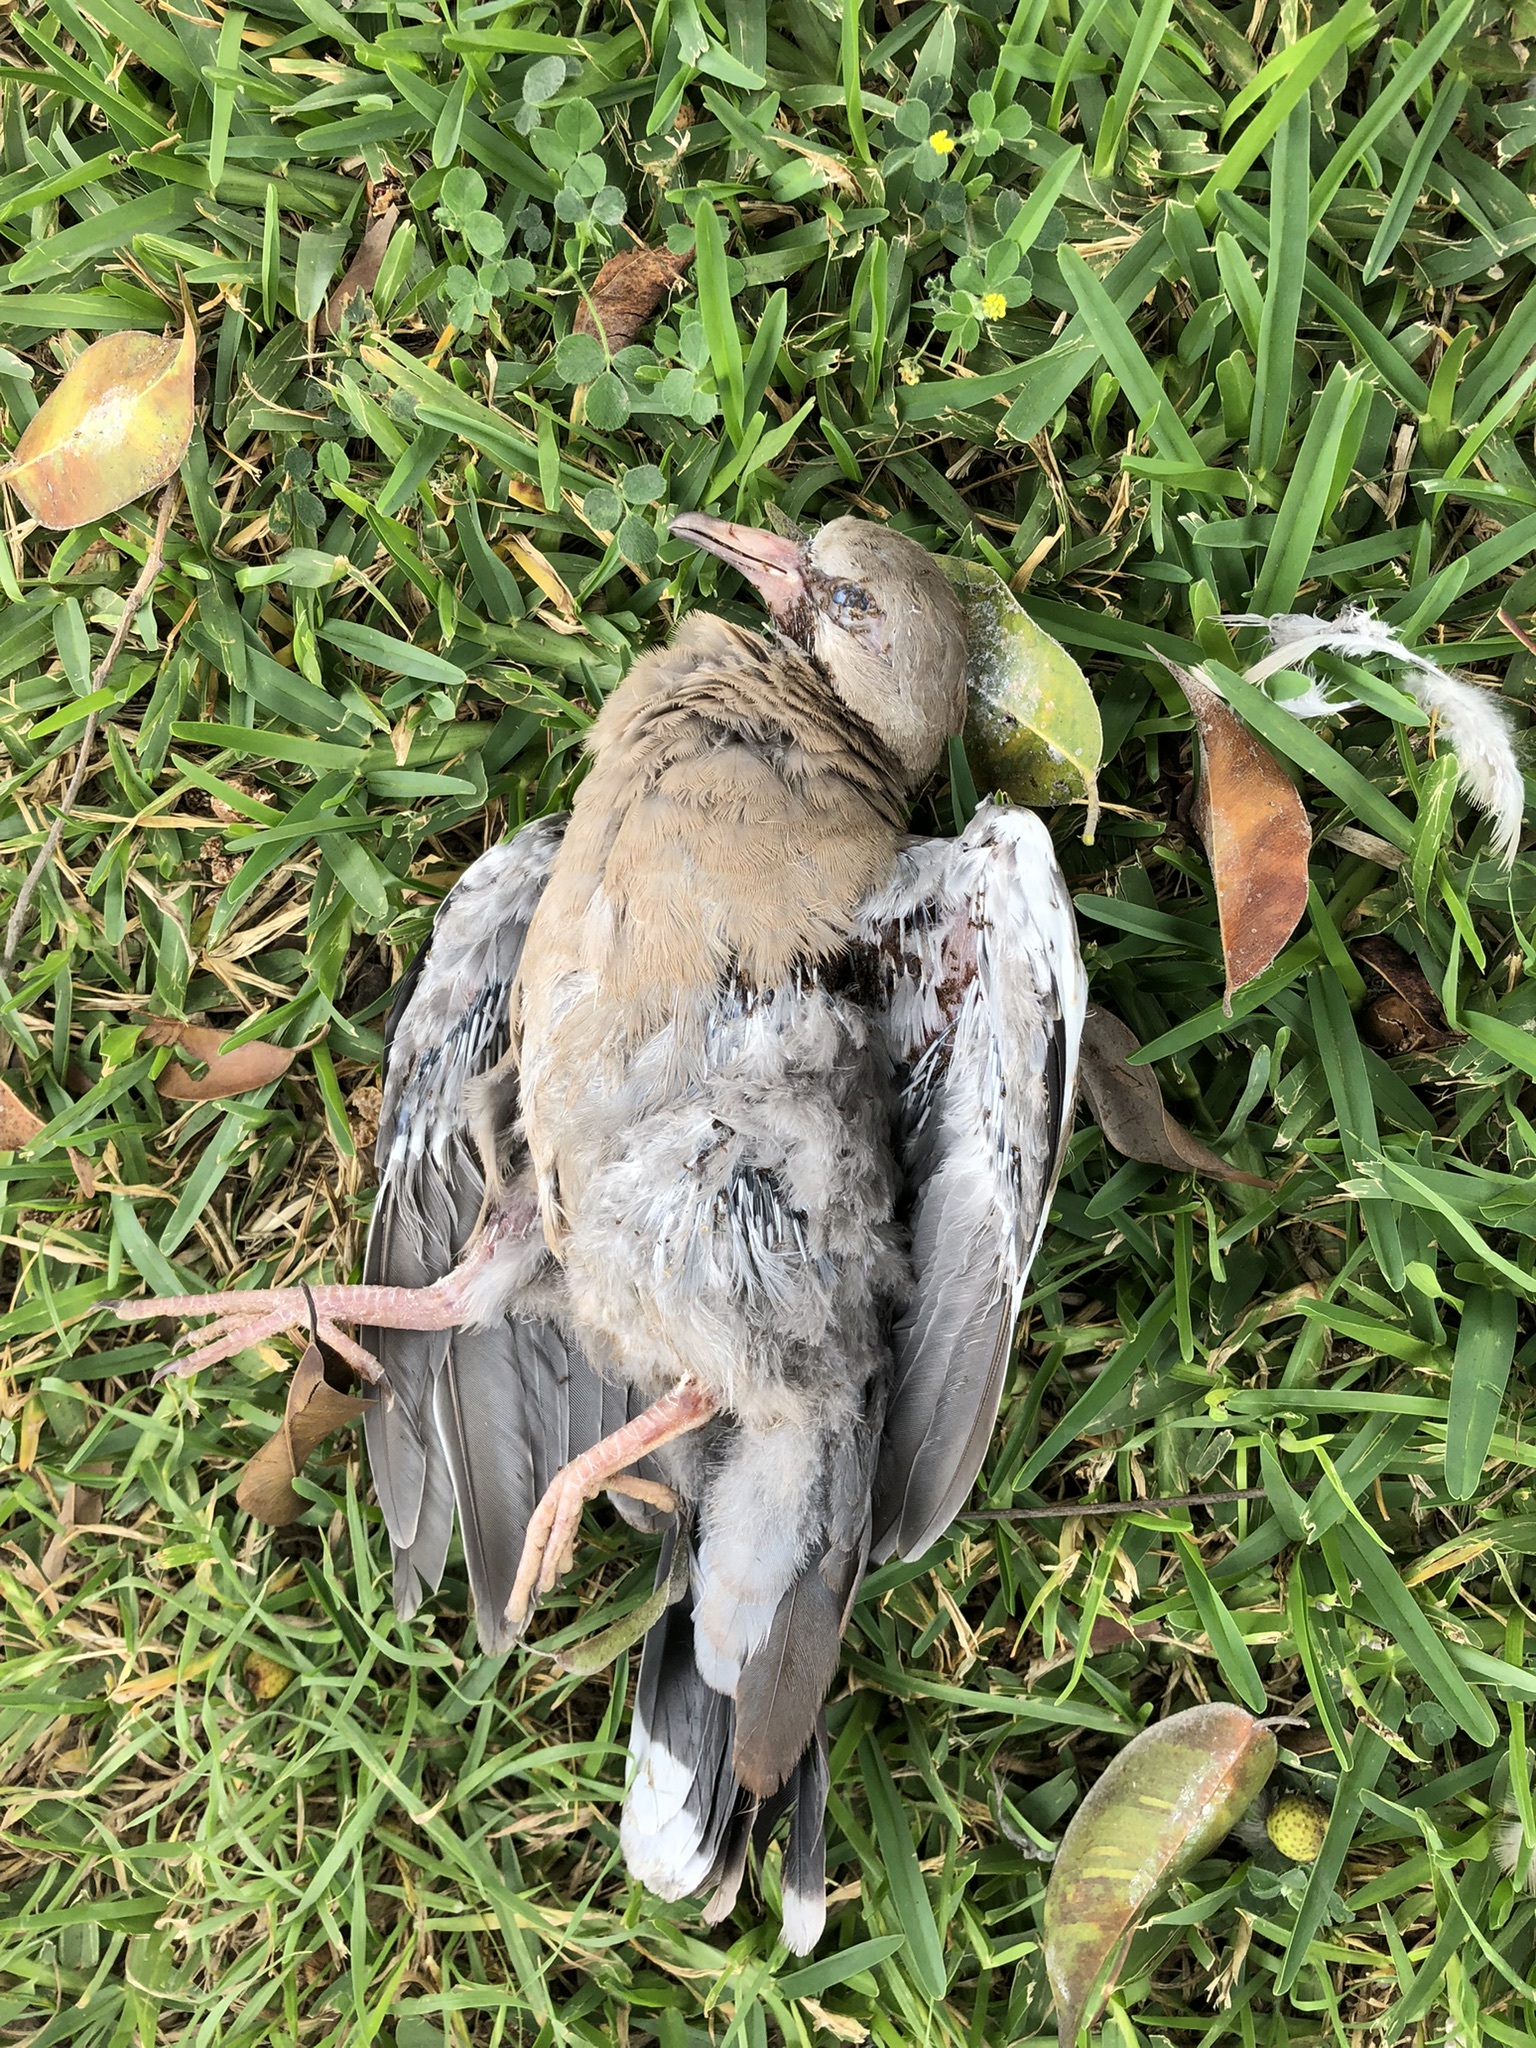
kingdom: Animalia
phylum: Chordata
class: Aves
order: Columbiformes
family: Columbidae
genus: Zenaida
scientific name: Zenaida meloda
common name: West peruvian dove
